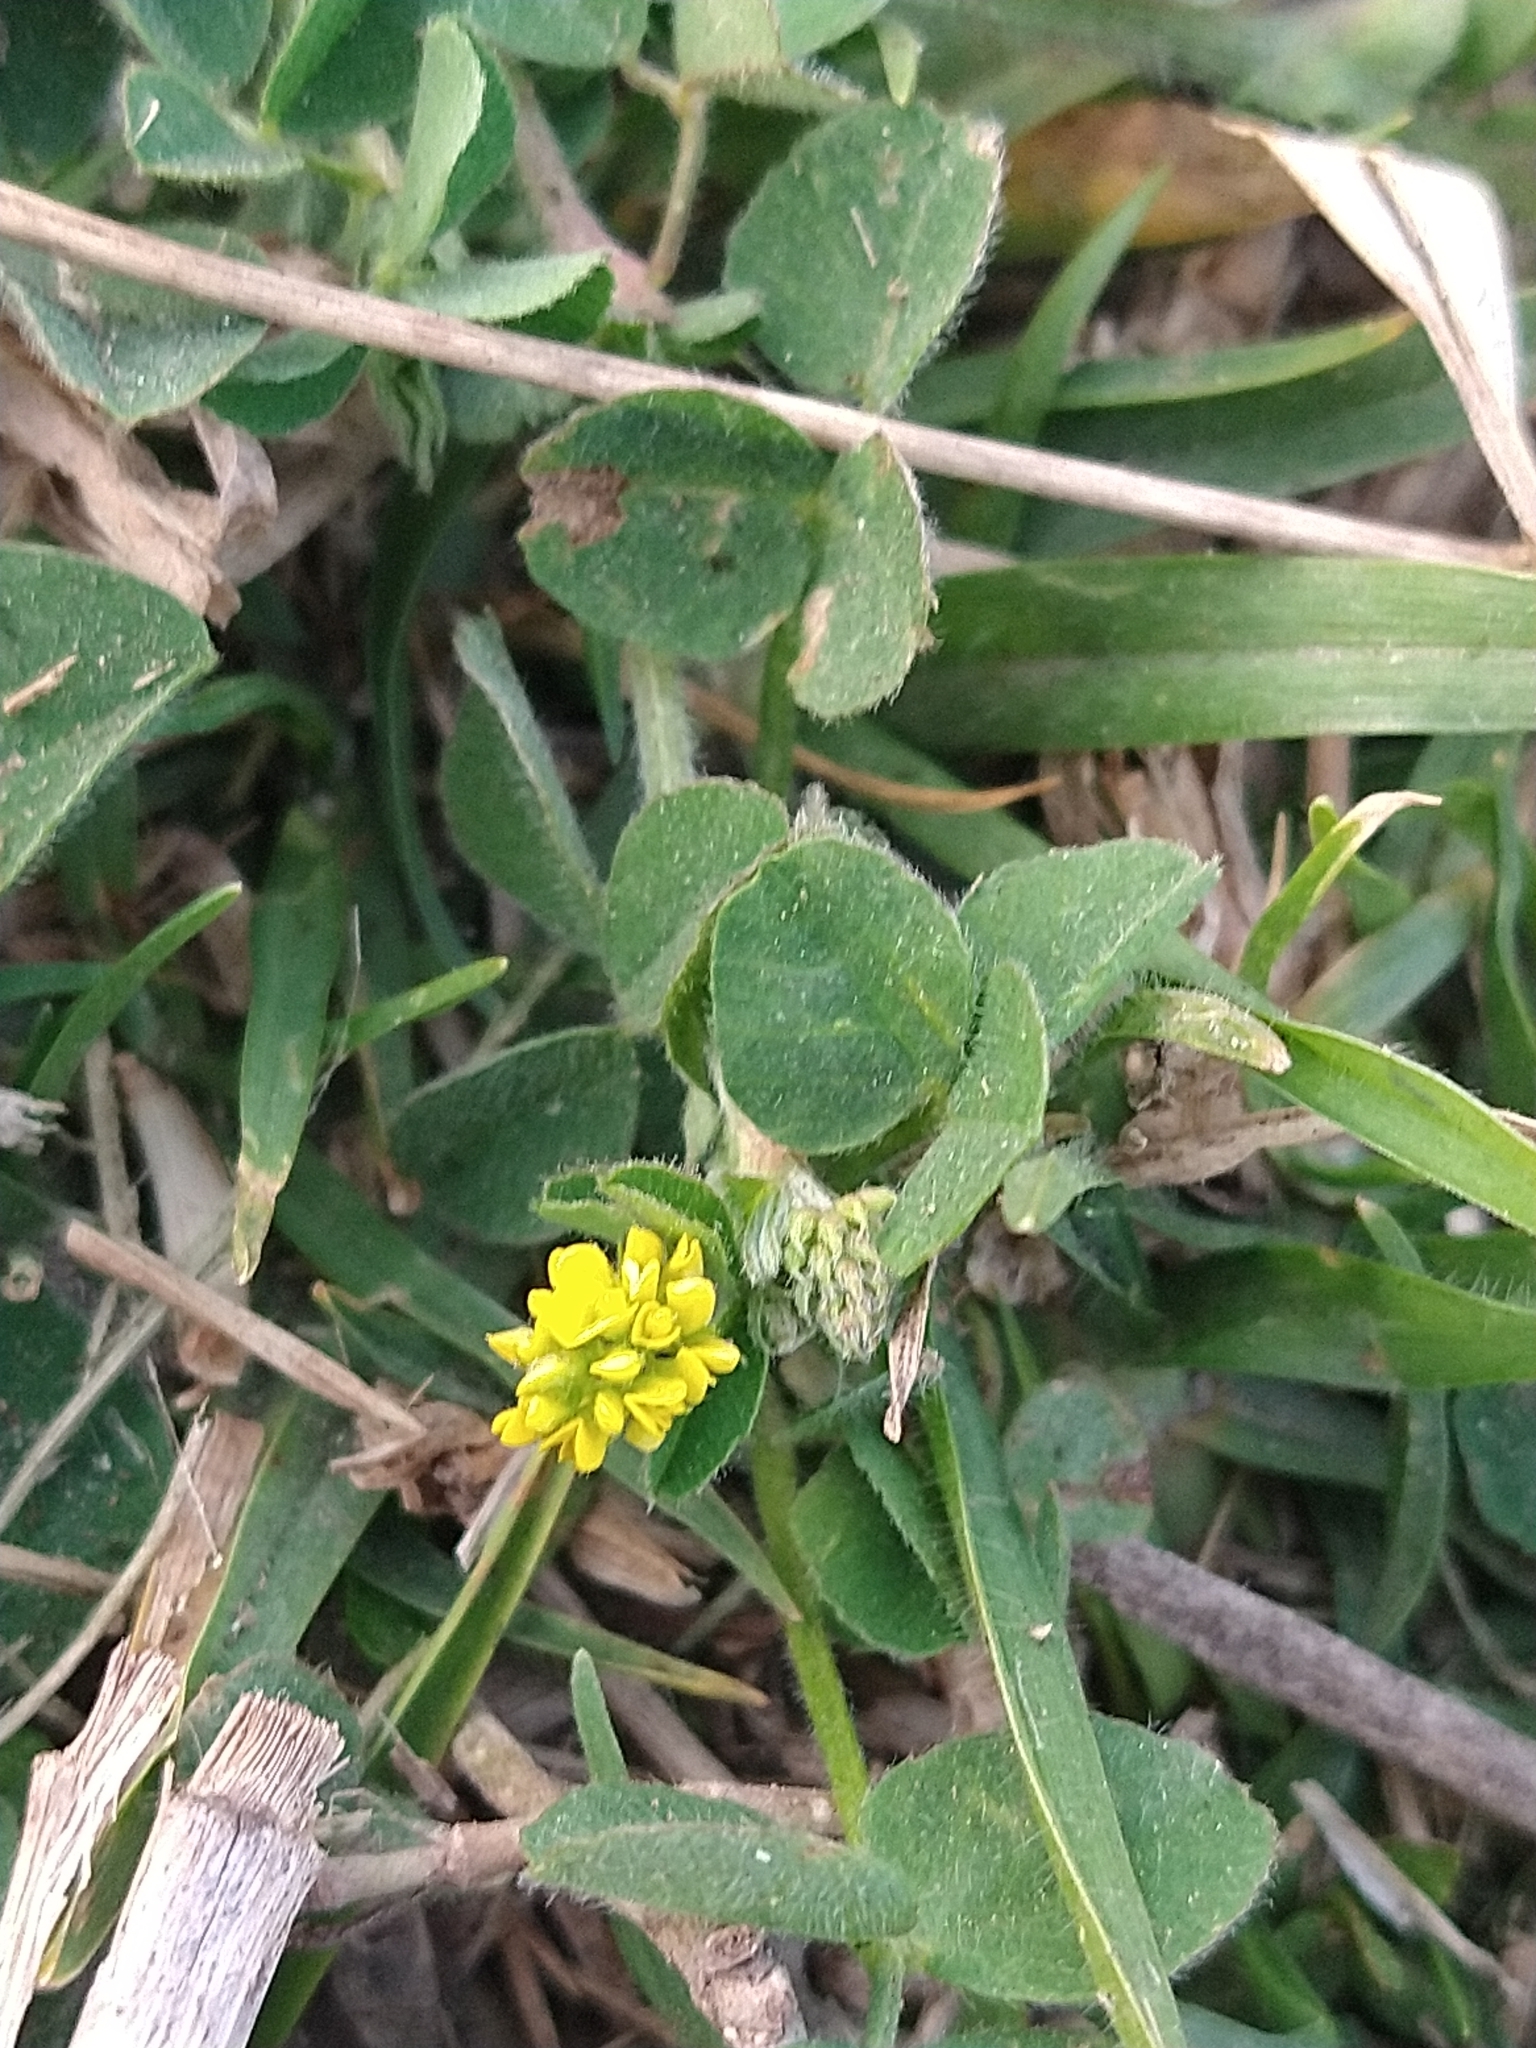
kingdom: Plantae
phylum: Tracheophyta
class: Magnoliopsida
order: Fabales
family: Fabaceae
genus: Medicago
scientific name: Medicago lupulina
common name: Black medick
